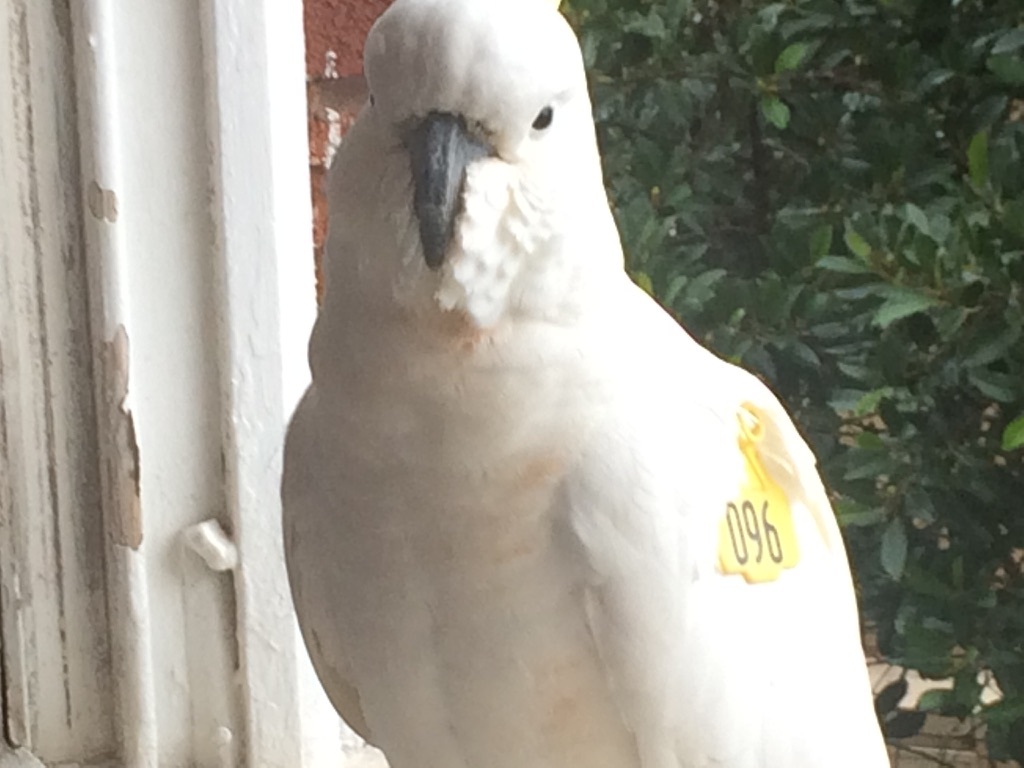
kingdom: Animalia
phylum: Chordata
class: Aves
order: Psittaciformes
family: Psittacidae
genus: Cacatua
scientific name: Cacatua galerita
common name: Sulphur-crested cockatoo
